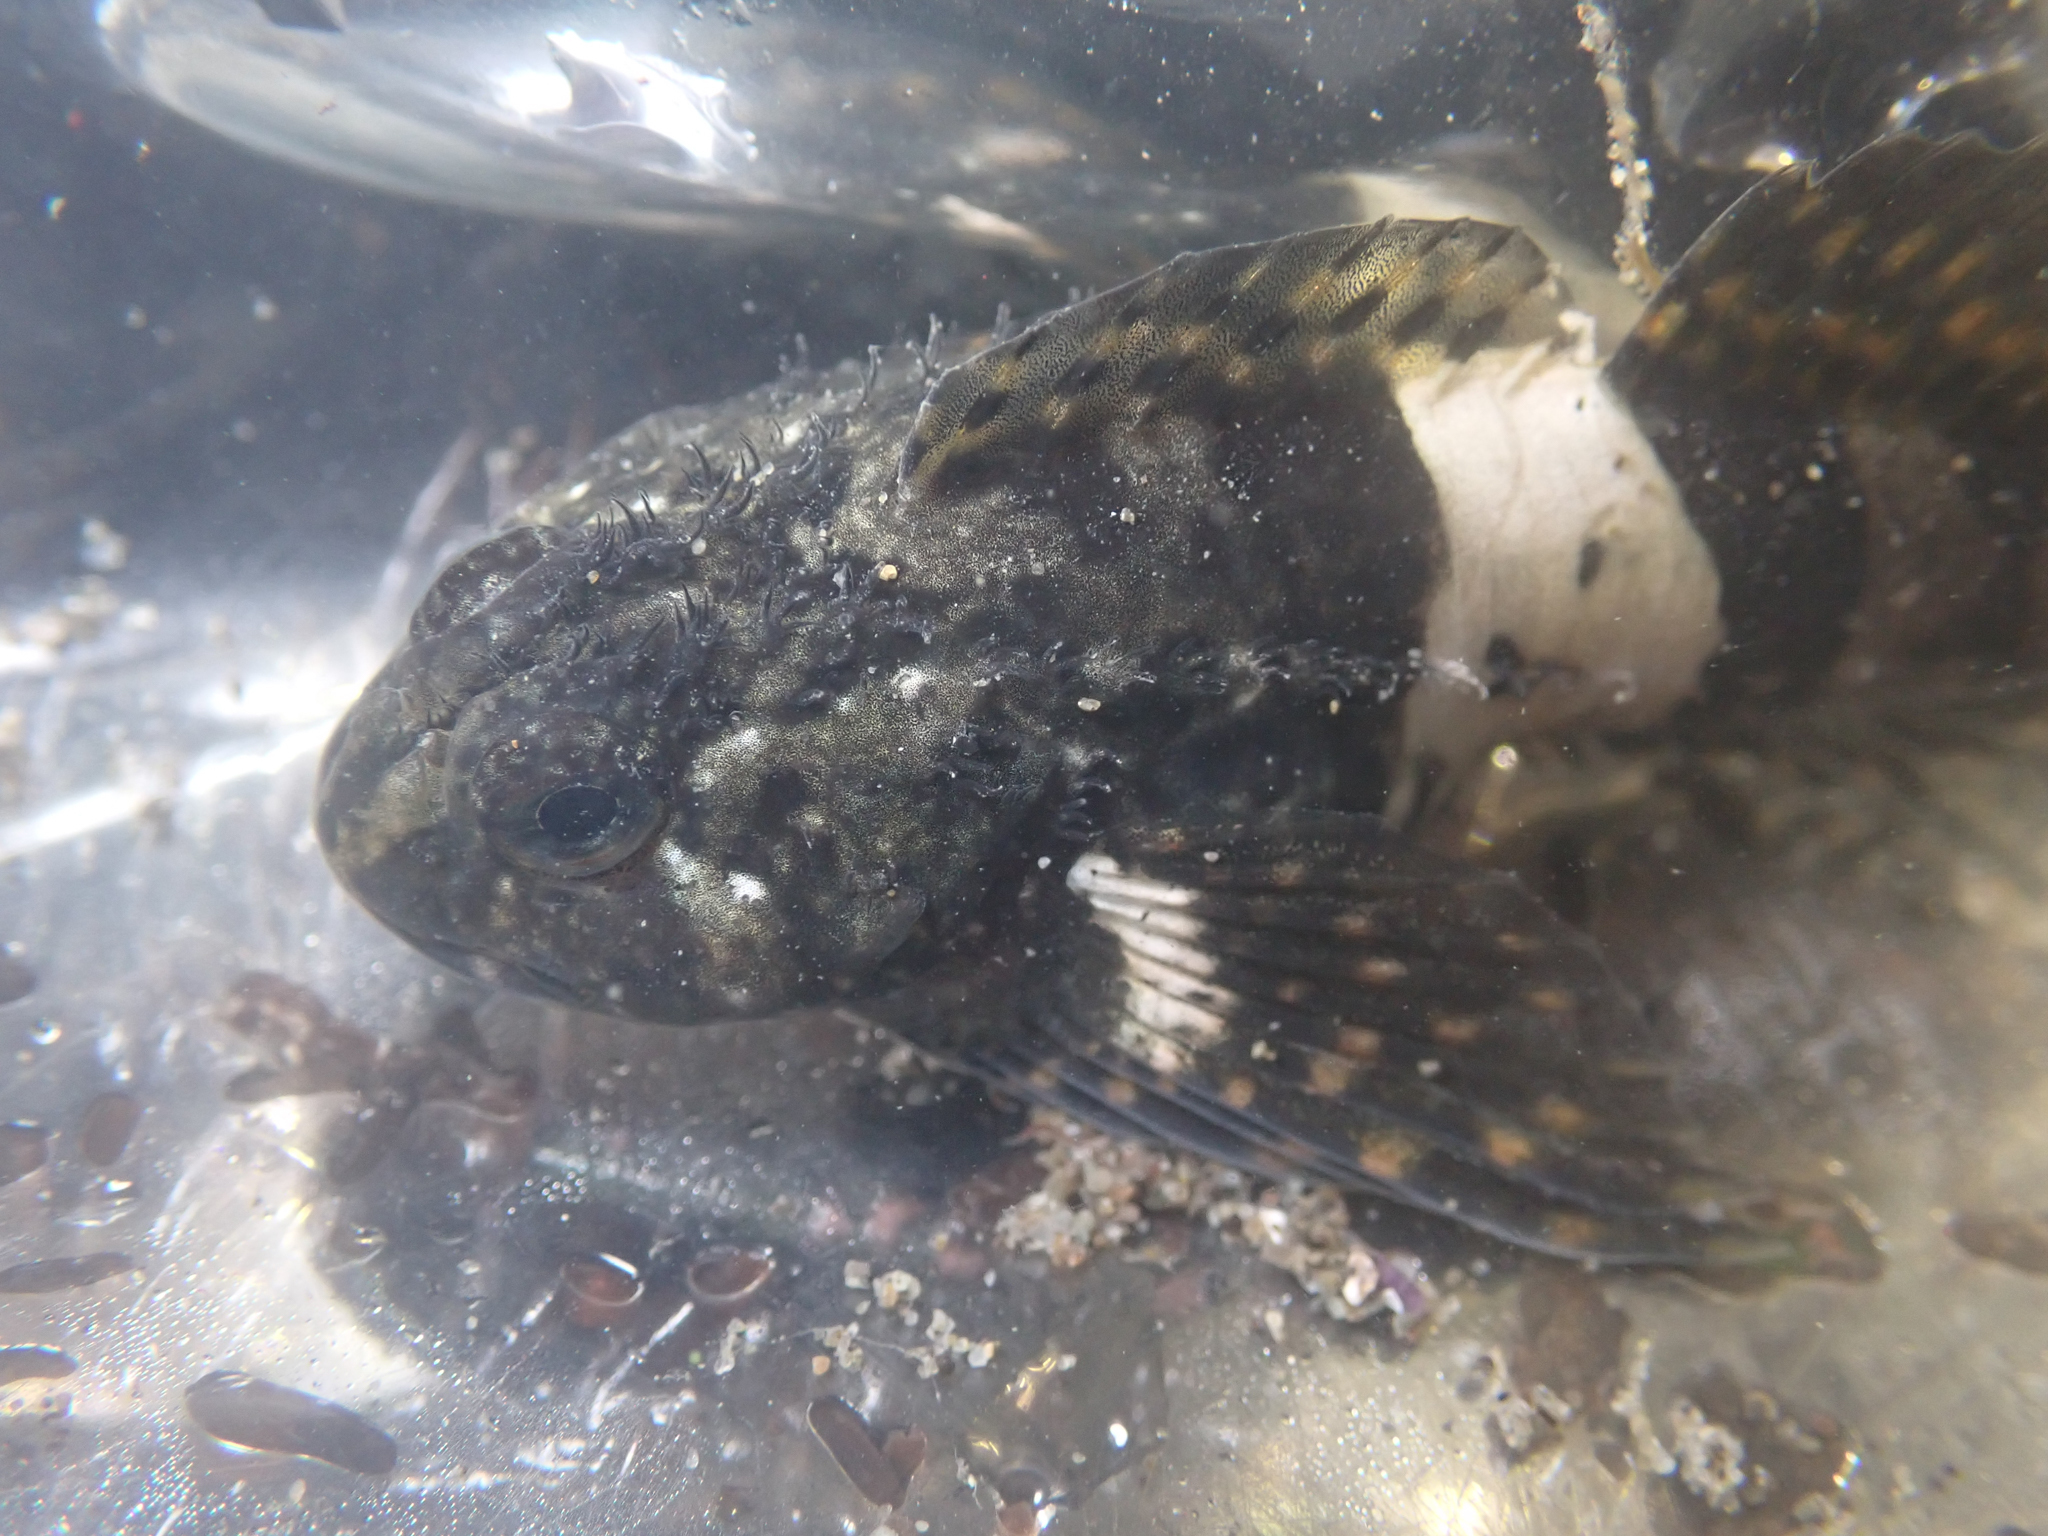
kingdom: Animalia
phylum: Chordata
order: Scorpaeniformes
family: Cottidae
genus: Clinocottus
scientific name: Clinocottus globiceps
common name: Mosshead sculpin
